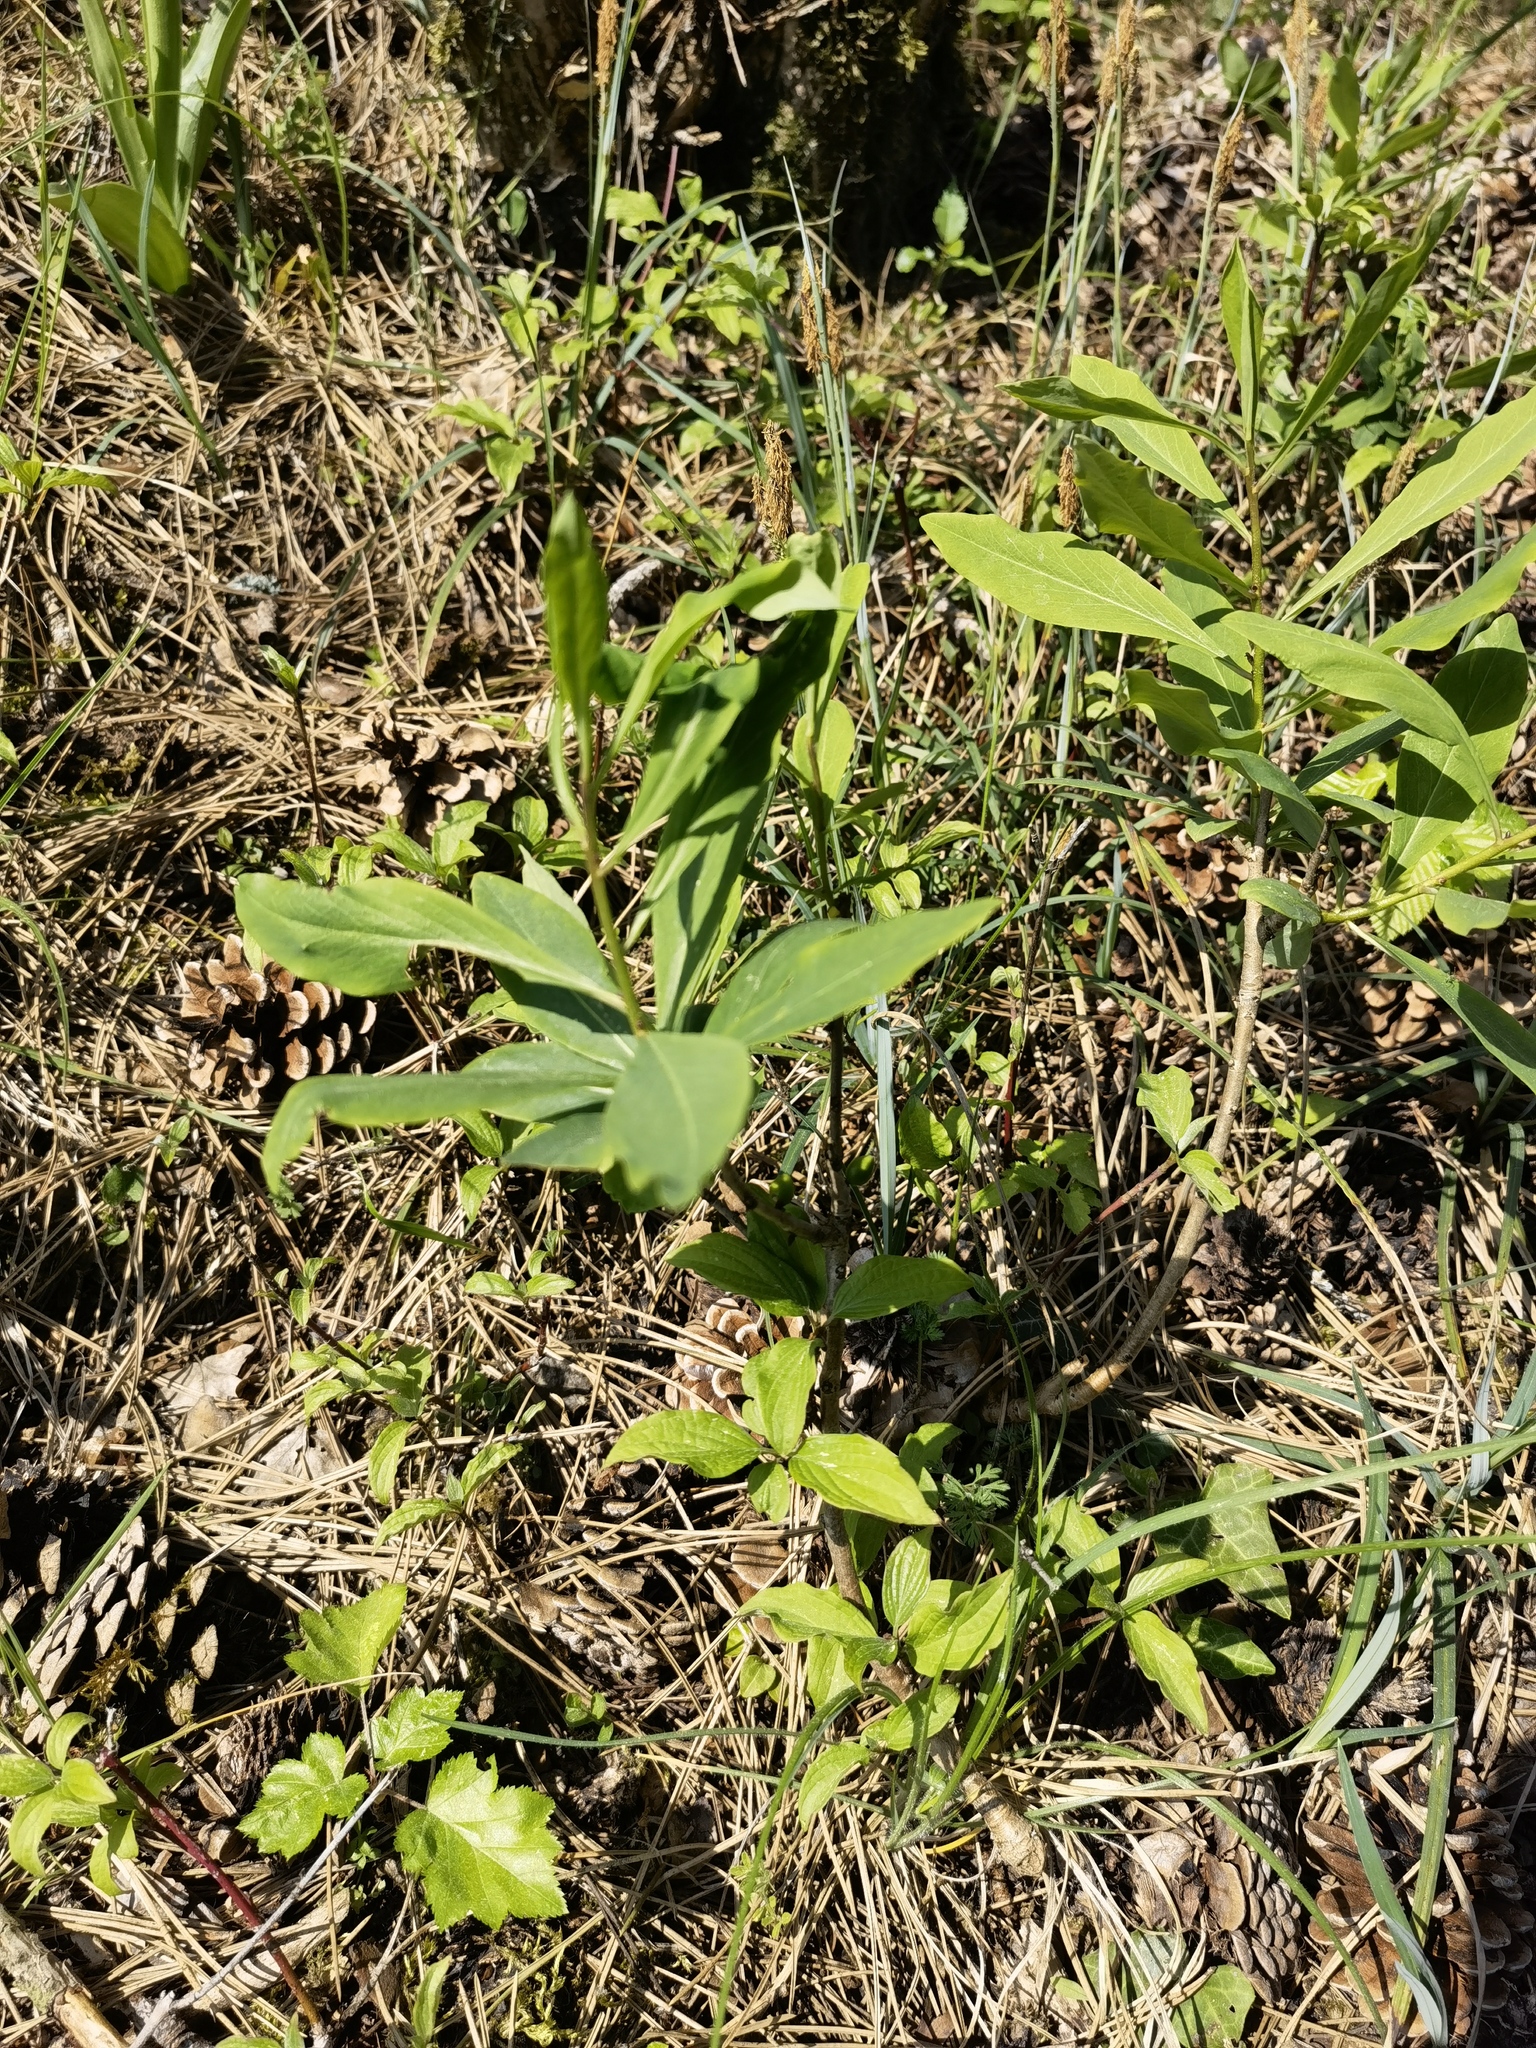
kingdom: Plantae
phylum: Tracheophyta
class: Magnoliopsida
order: Malvales
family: Thymelaeaceae
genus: Daphne
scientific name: Daphne mezereum
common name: Mezereon
